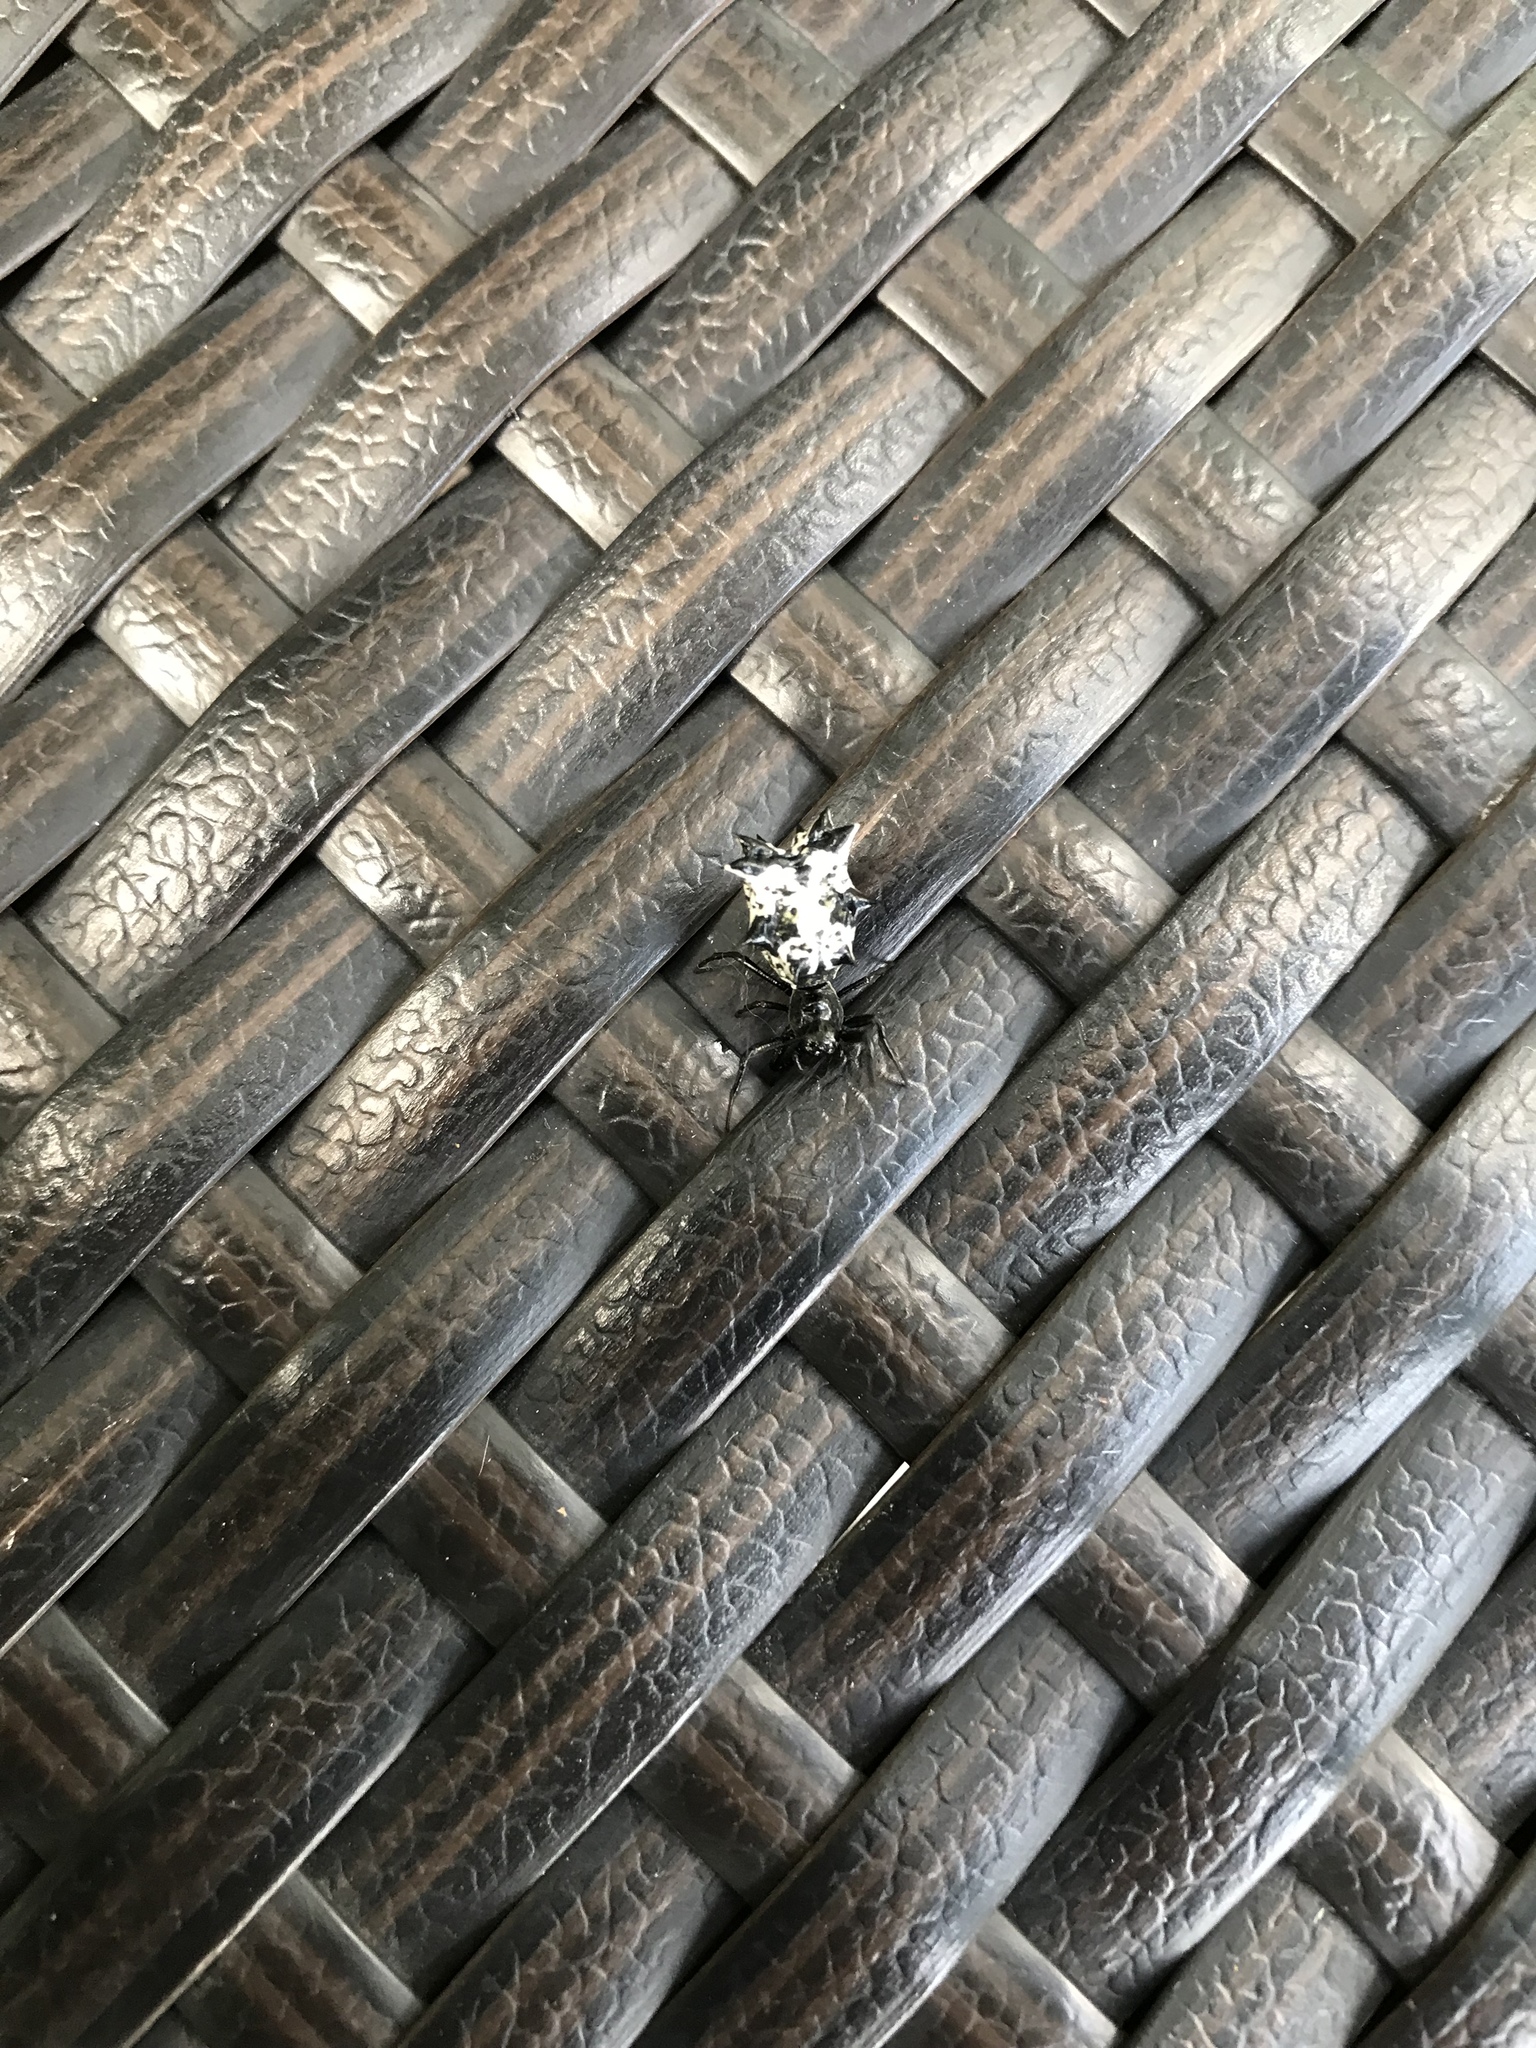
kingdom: Animalia
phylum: Arthropoda
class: Arachnida
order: Araneae
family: Araneidae
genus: Micrathena
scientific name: Micrathena gracilis
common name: Orb weavers
